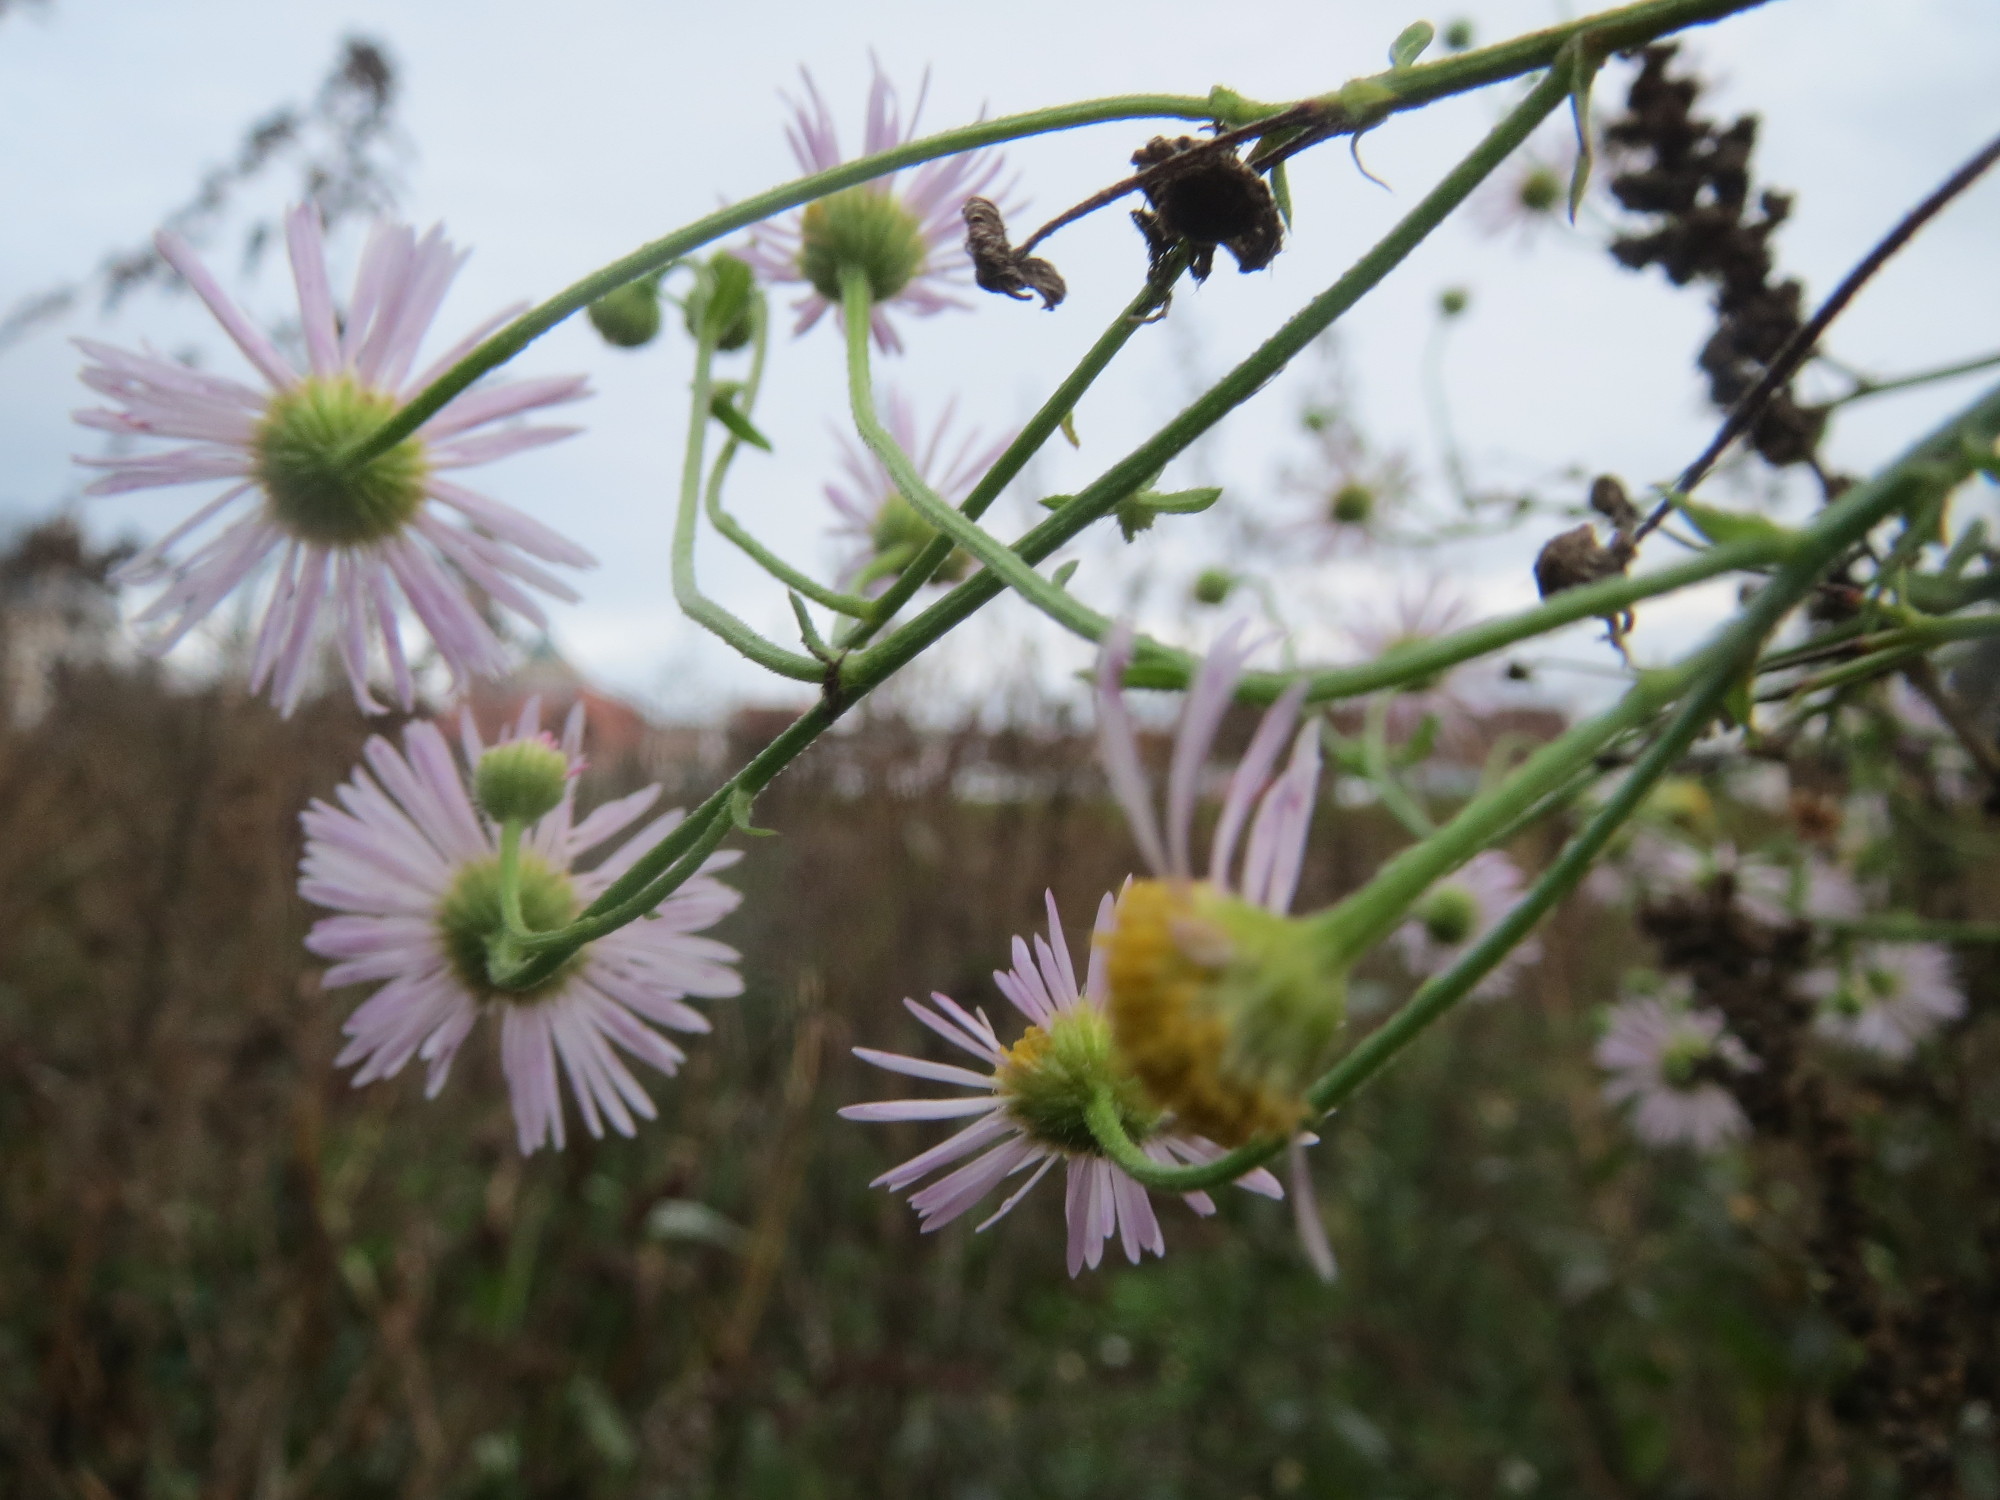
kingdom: Plantae
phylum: Tracheophyta
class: Magnoliopsida
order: Asterales
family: Asteraceae
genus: Erigeron
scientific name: Erigeron annuus
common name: Tall fleabane
